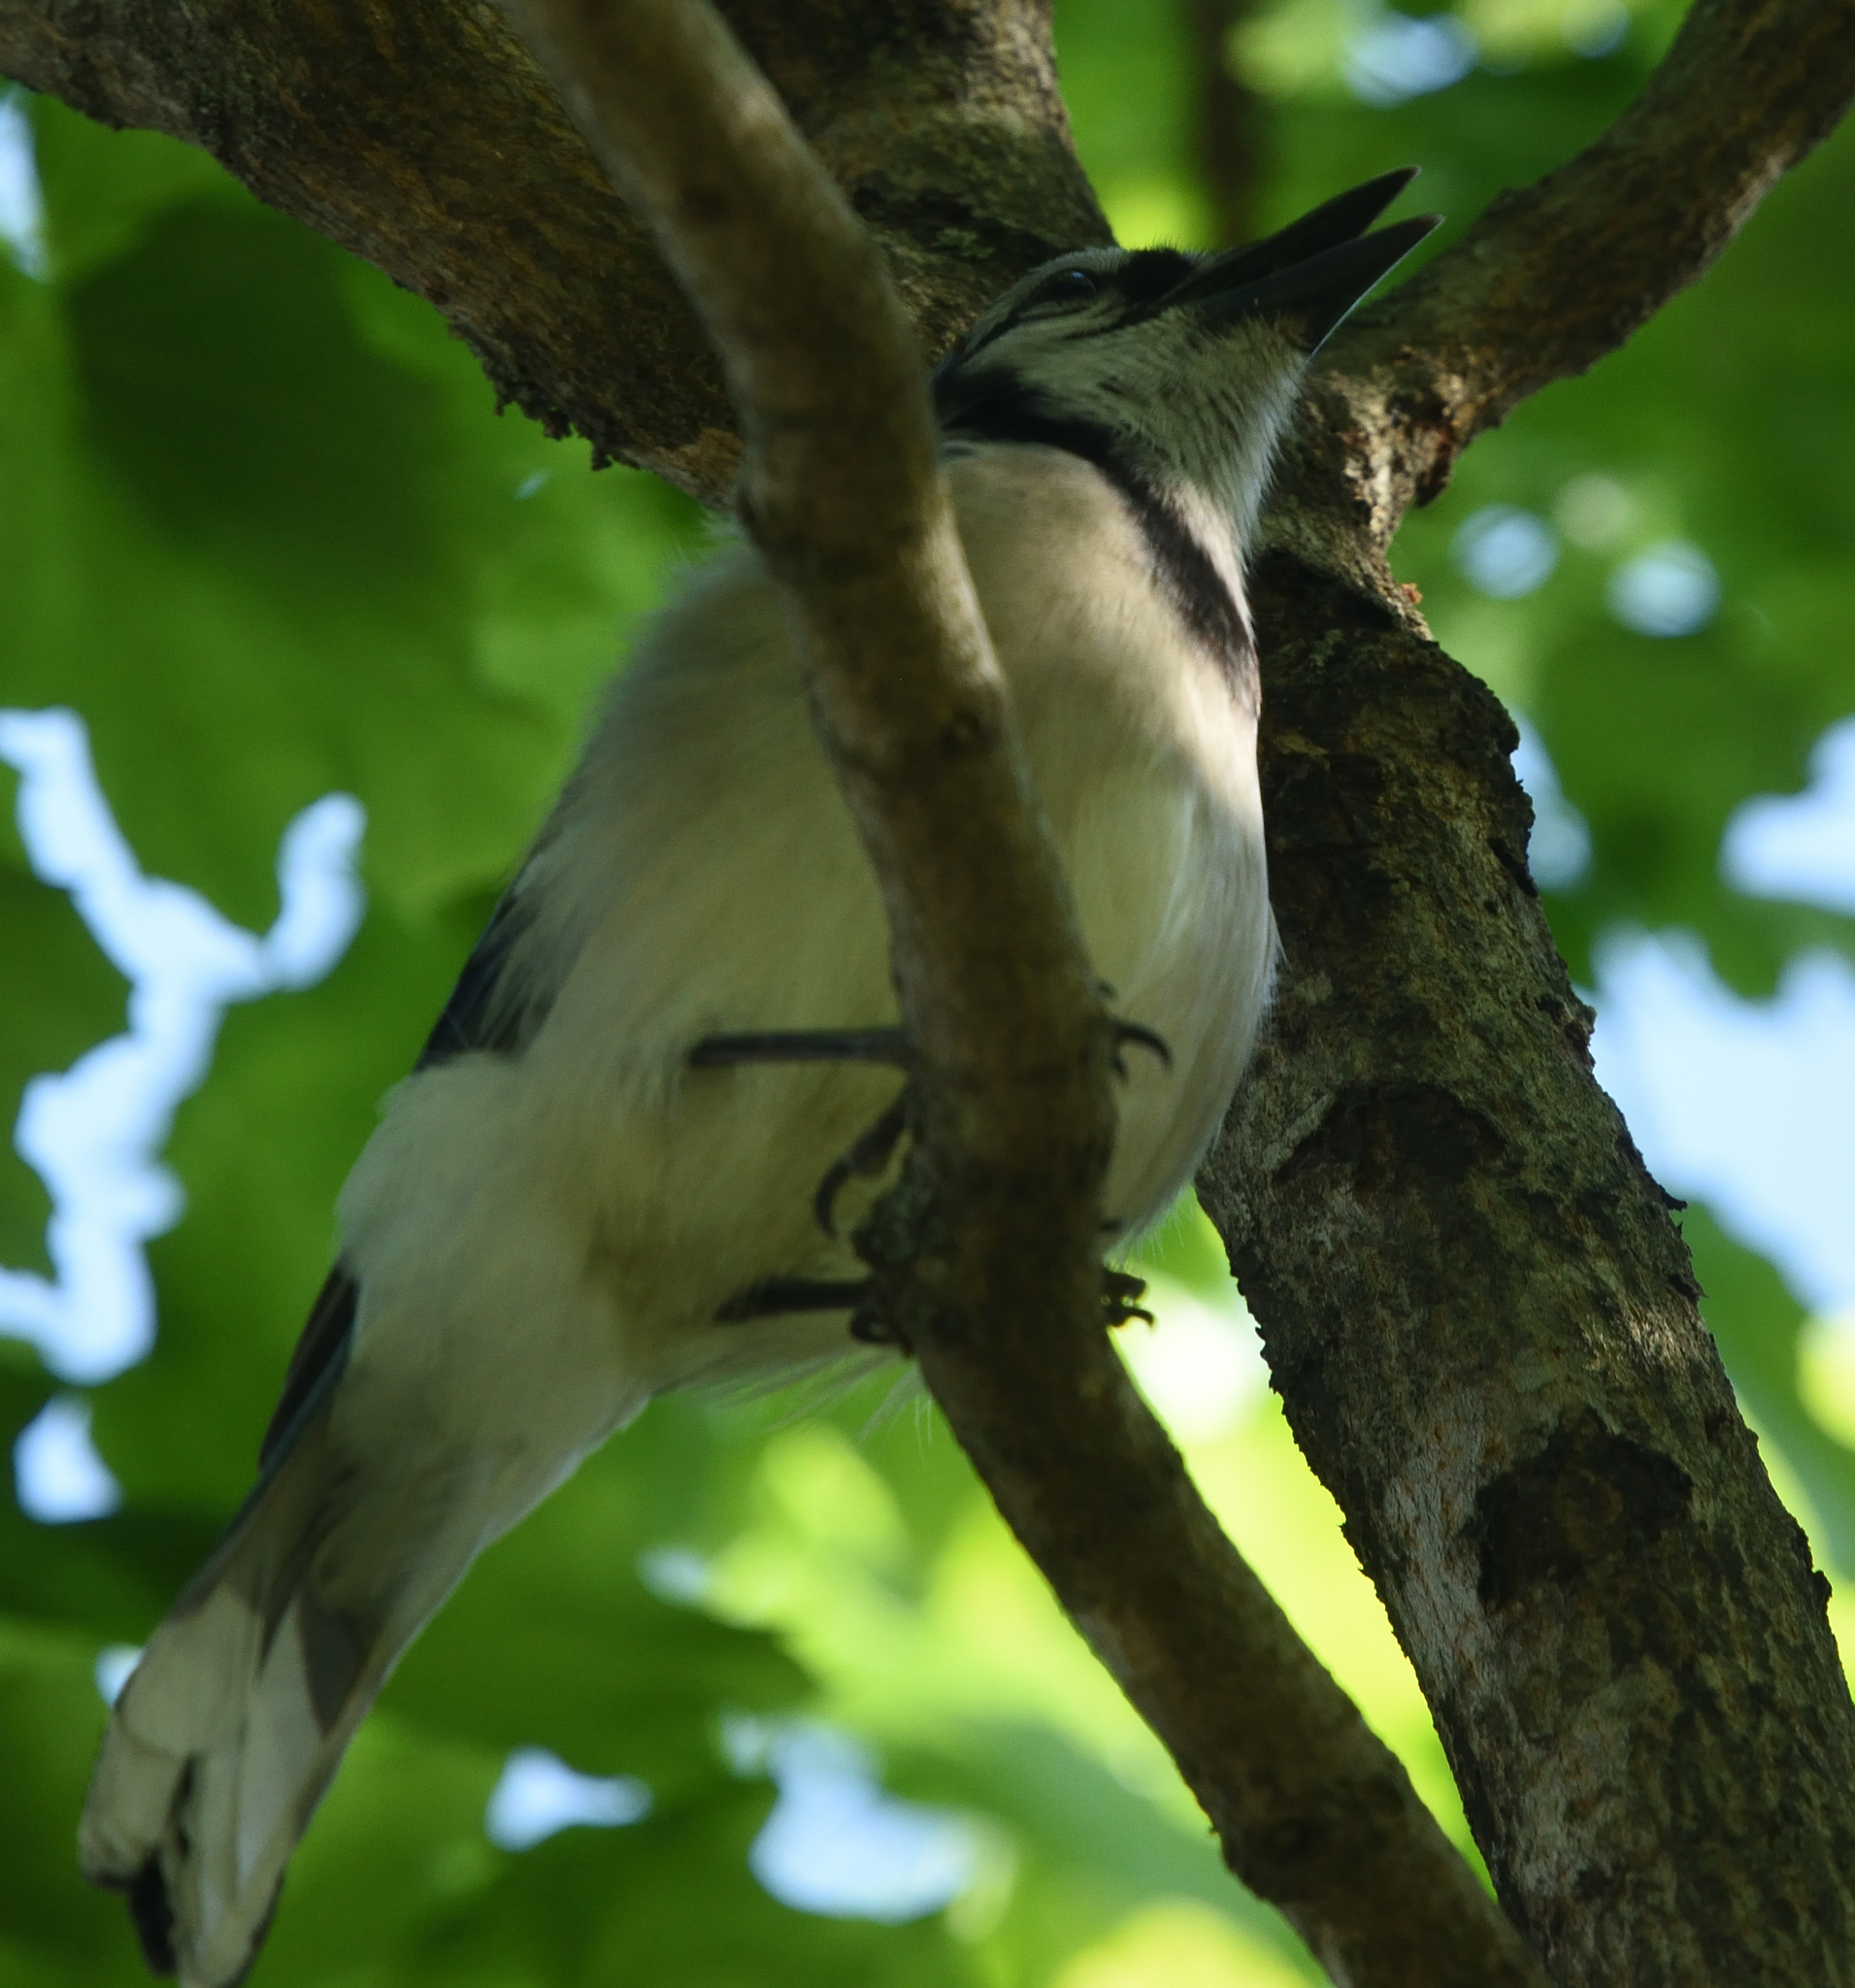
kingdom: Animalia
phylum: Chordata
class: Aves
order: Passeriformes
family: Corvidae
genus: Cyanocitta
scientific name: Cyanocitta cristata
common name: Blue jay
